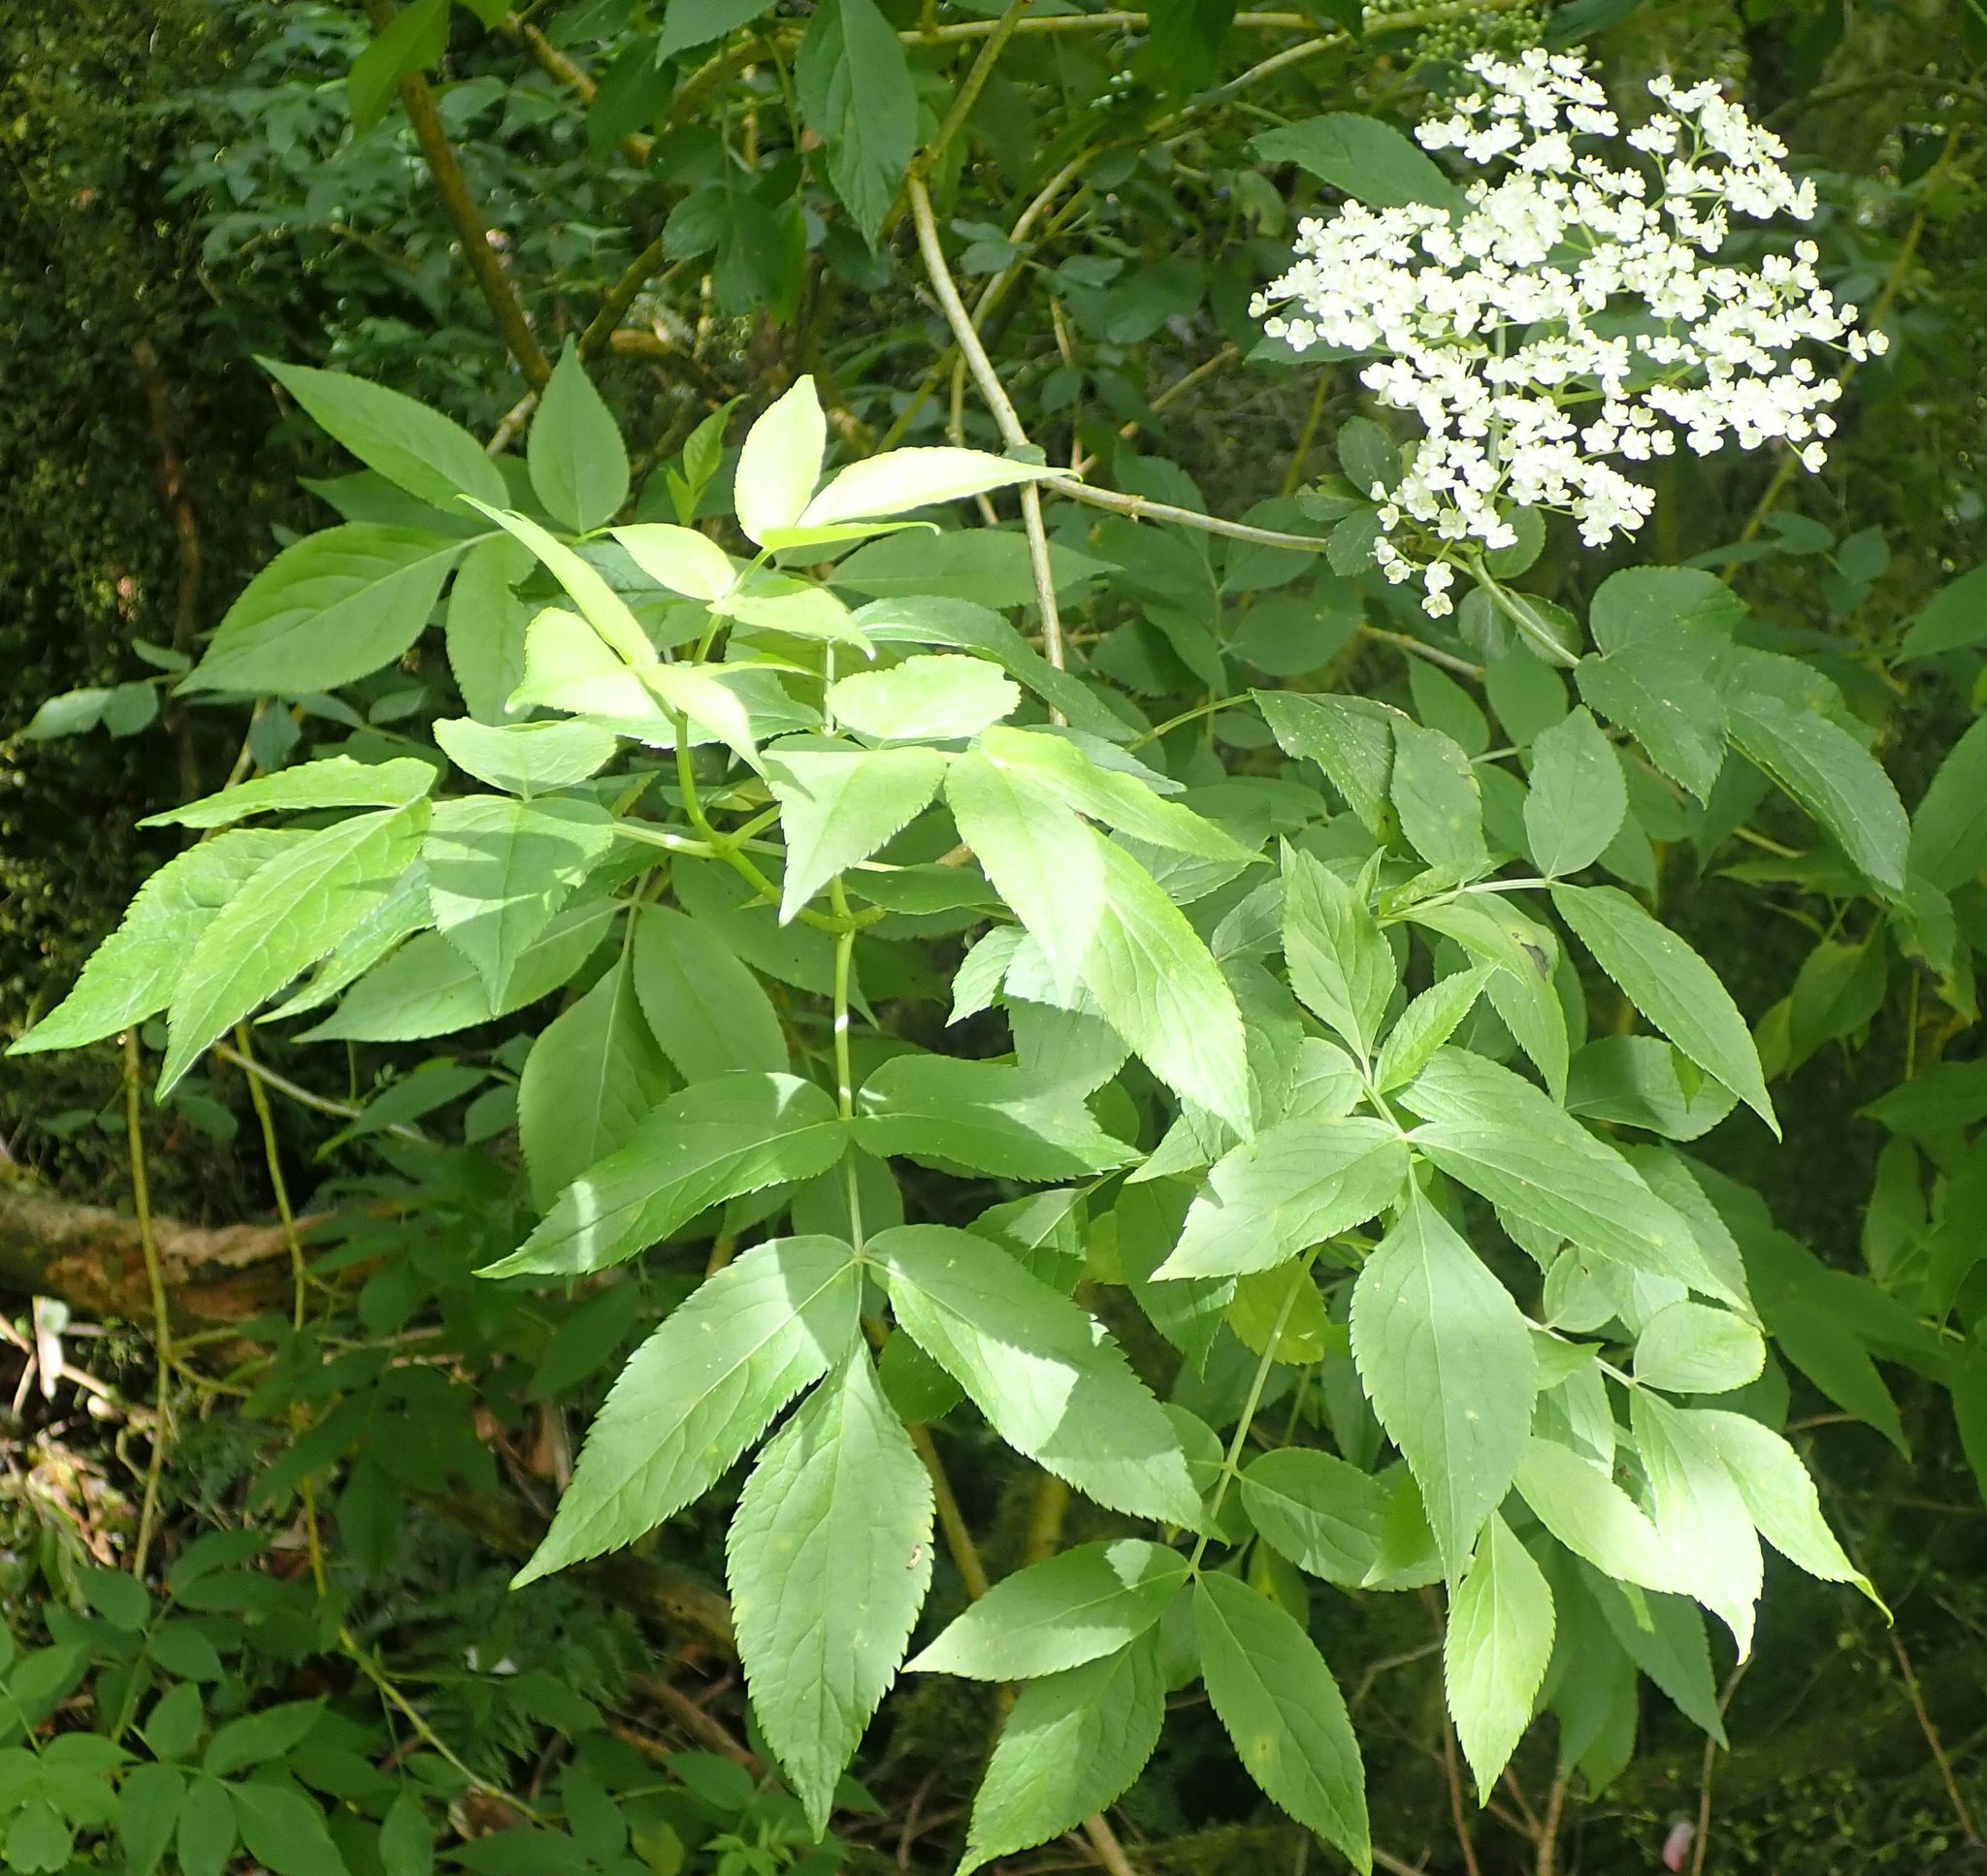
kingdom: Plantae
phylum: Tracheophyta
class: Magnoliopsida
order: Dipsacales
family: Viburnaceae
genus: Sambucus
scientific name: Sambucus nigra
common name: Elder
